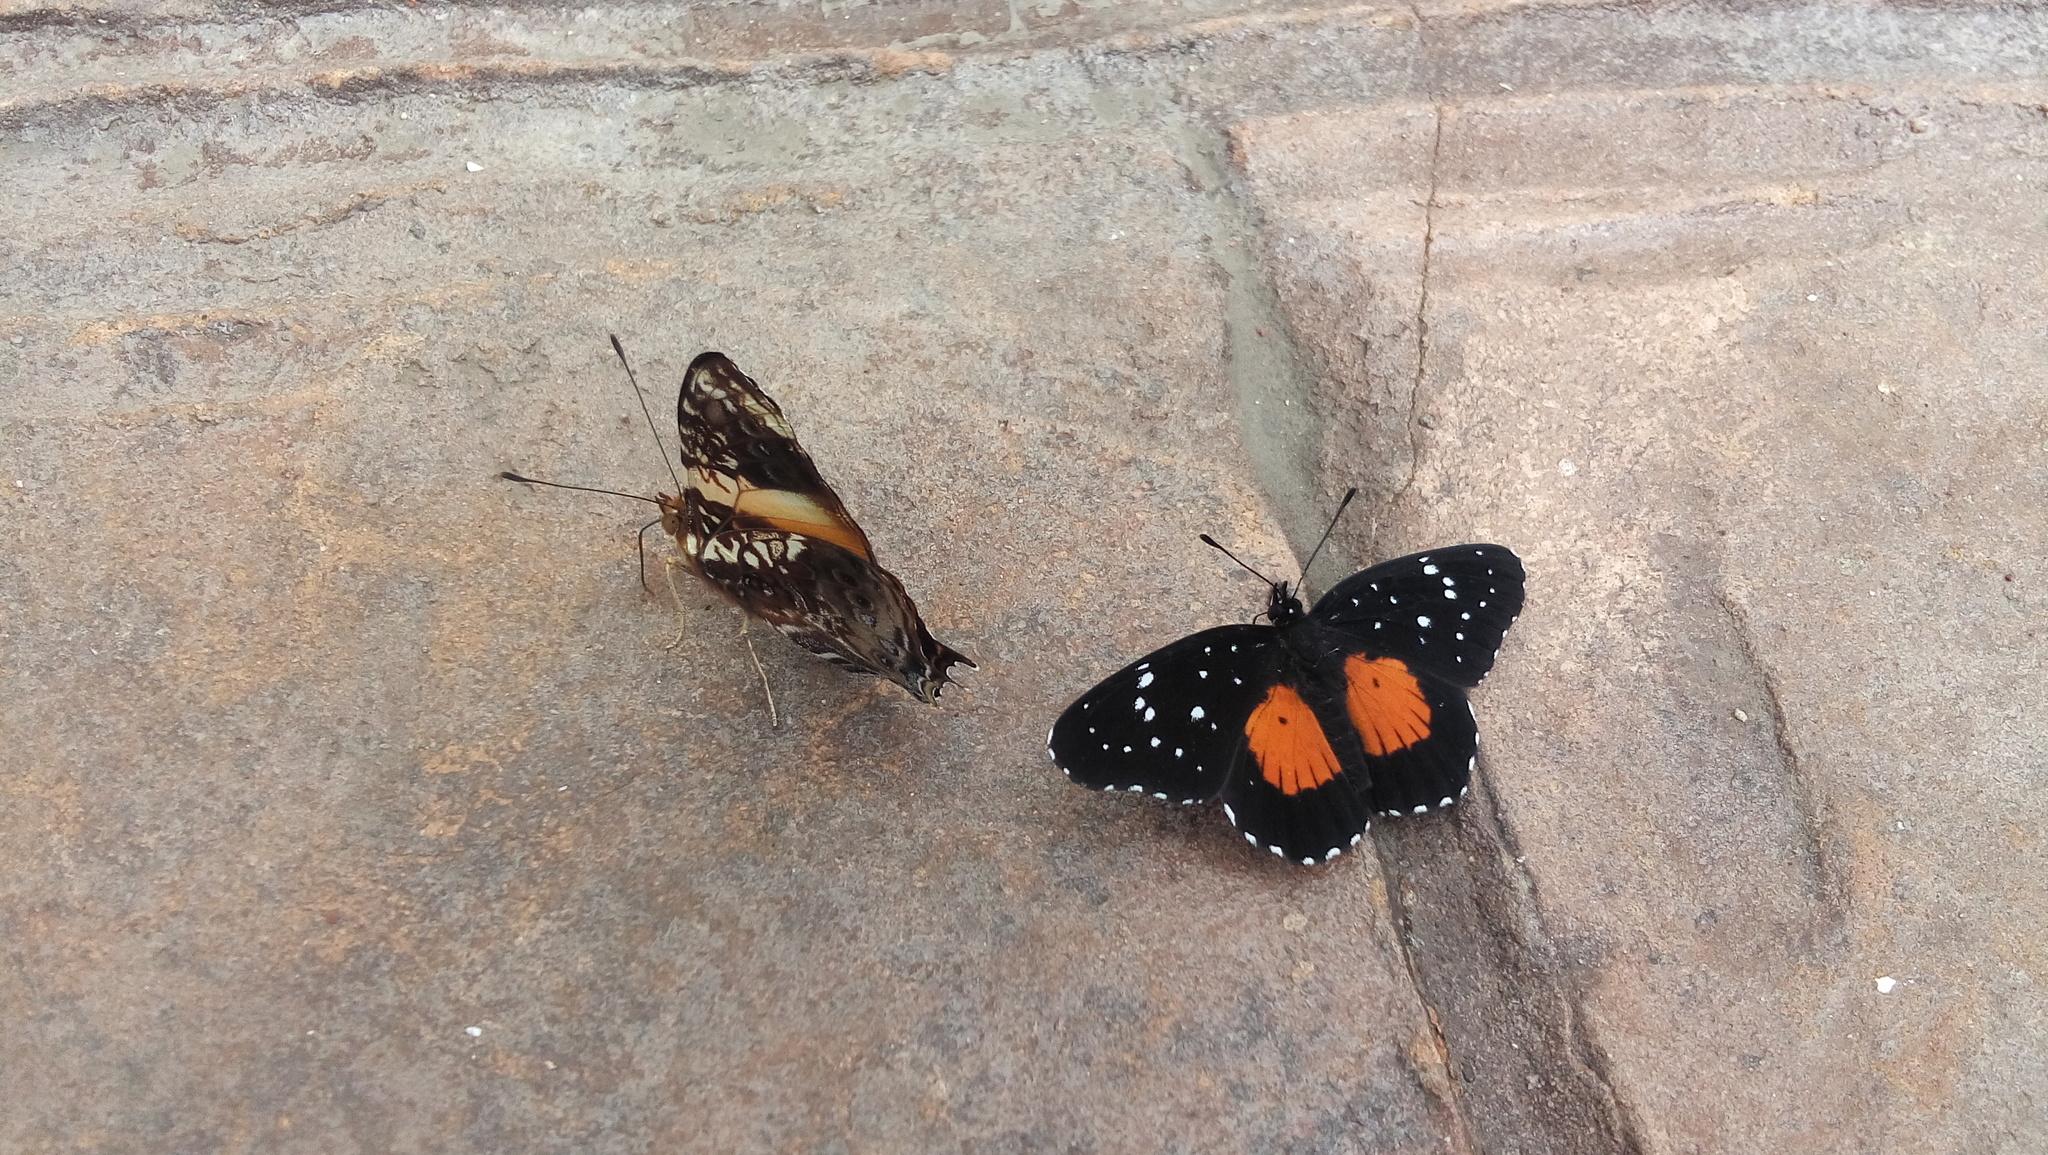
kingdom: Animalia
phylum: Arthropoda
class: Insecta
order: Lepidoptera
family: Nymphalidae
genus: Chlosyne
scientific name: Chlosyne janais
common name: Crimson patch
